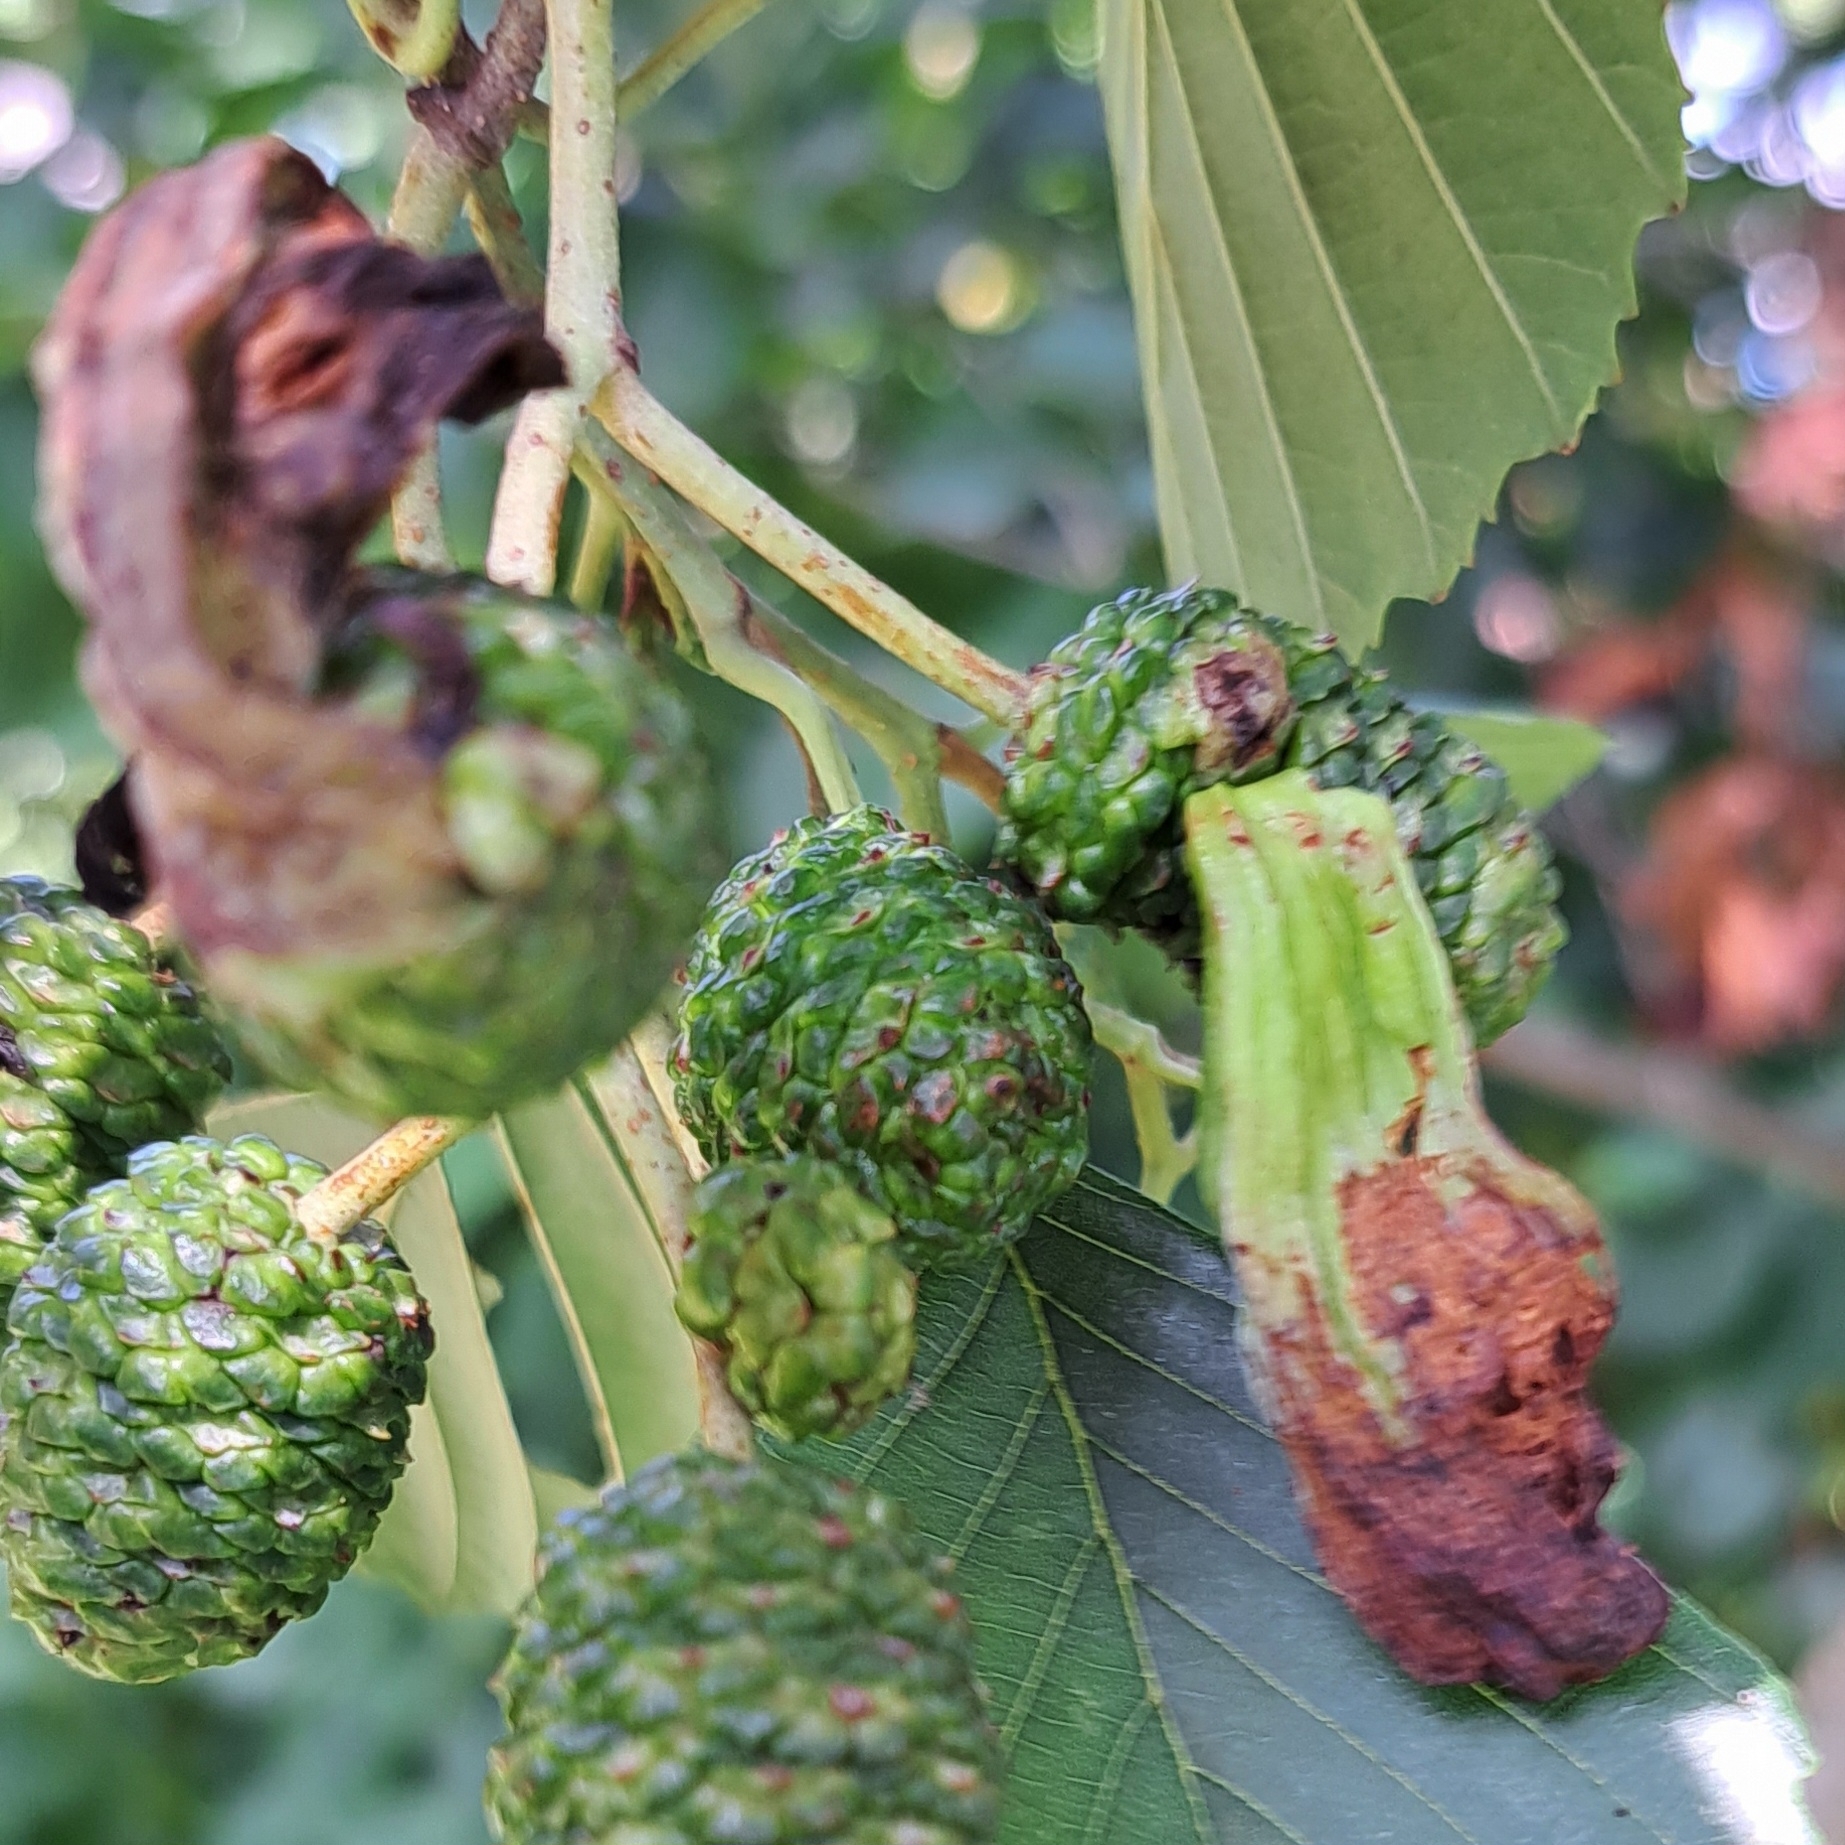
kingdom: Fungi
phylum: Ascomycota
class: Taphrinomycetes
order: Taphrinales
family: Taphrinaceae
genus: Taphrina
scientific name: Taphrina alni
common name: Alder tongue
